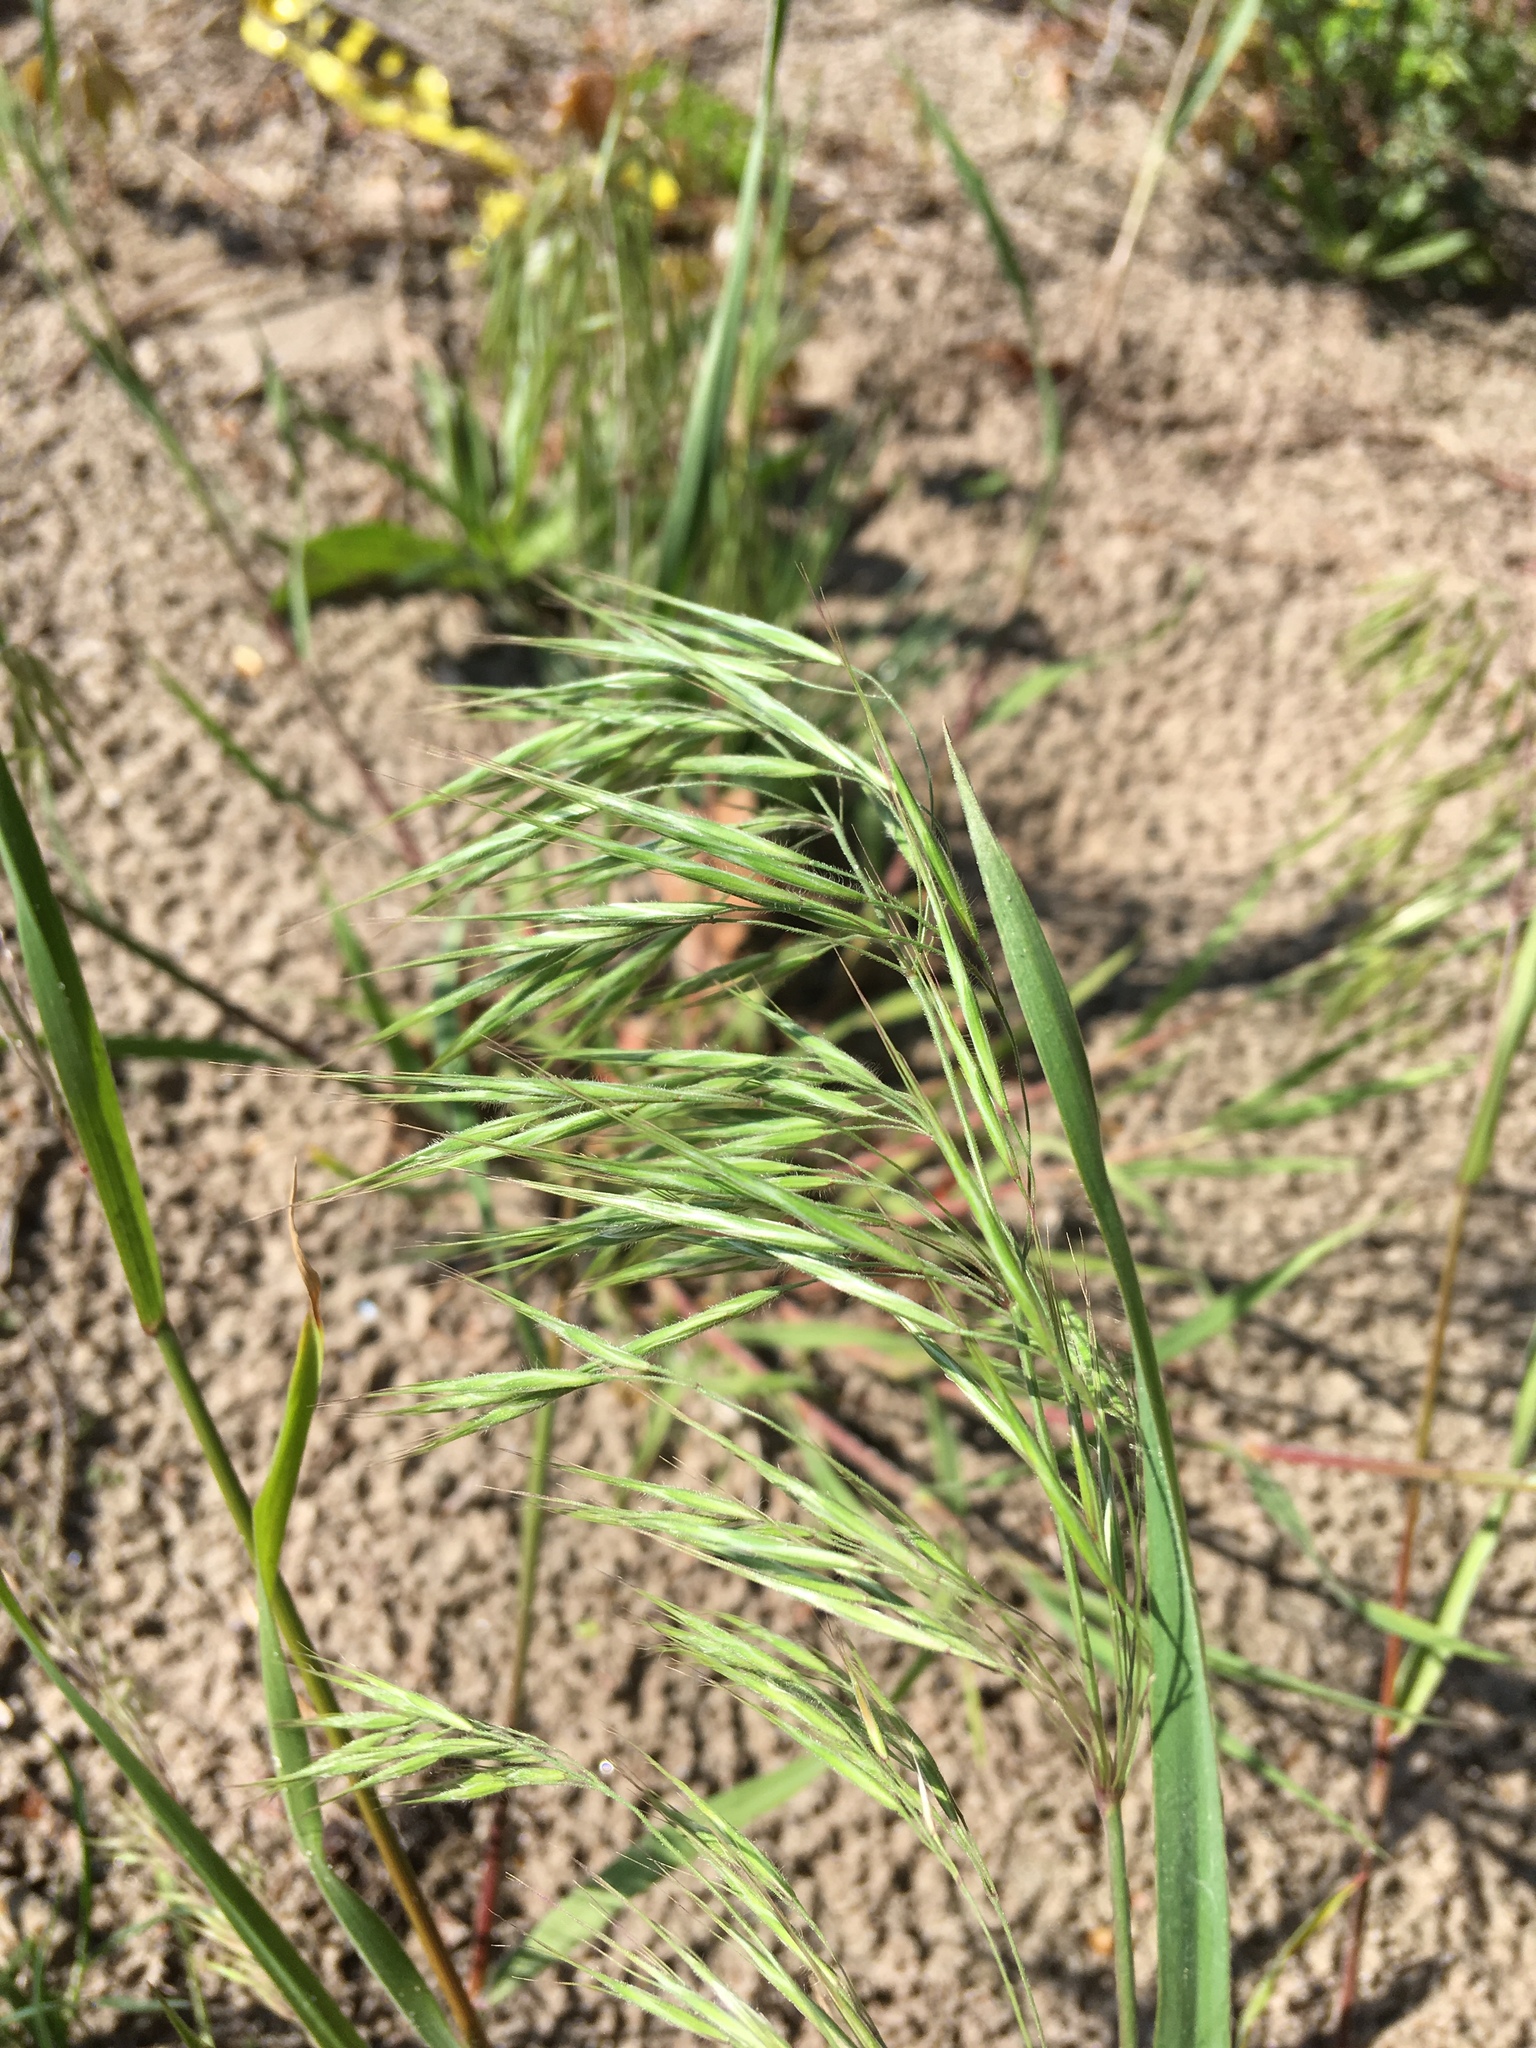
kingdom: Plantae
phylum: Tracheophyta
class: Liliopsida
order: Poales
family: Poaceae
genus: Bromus
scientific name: Bromus tectorum
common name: Cheatgrass
